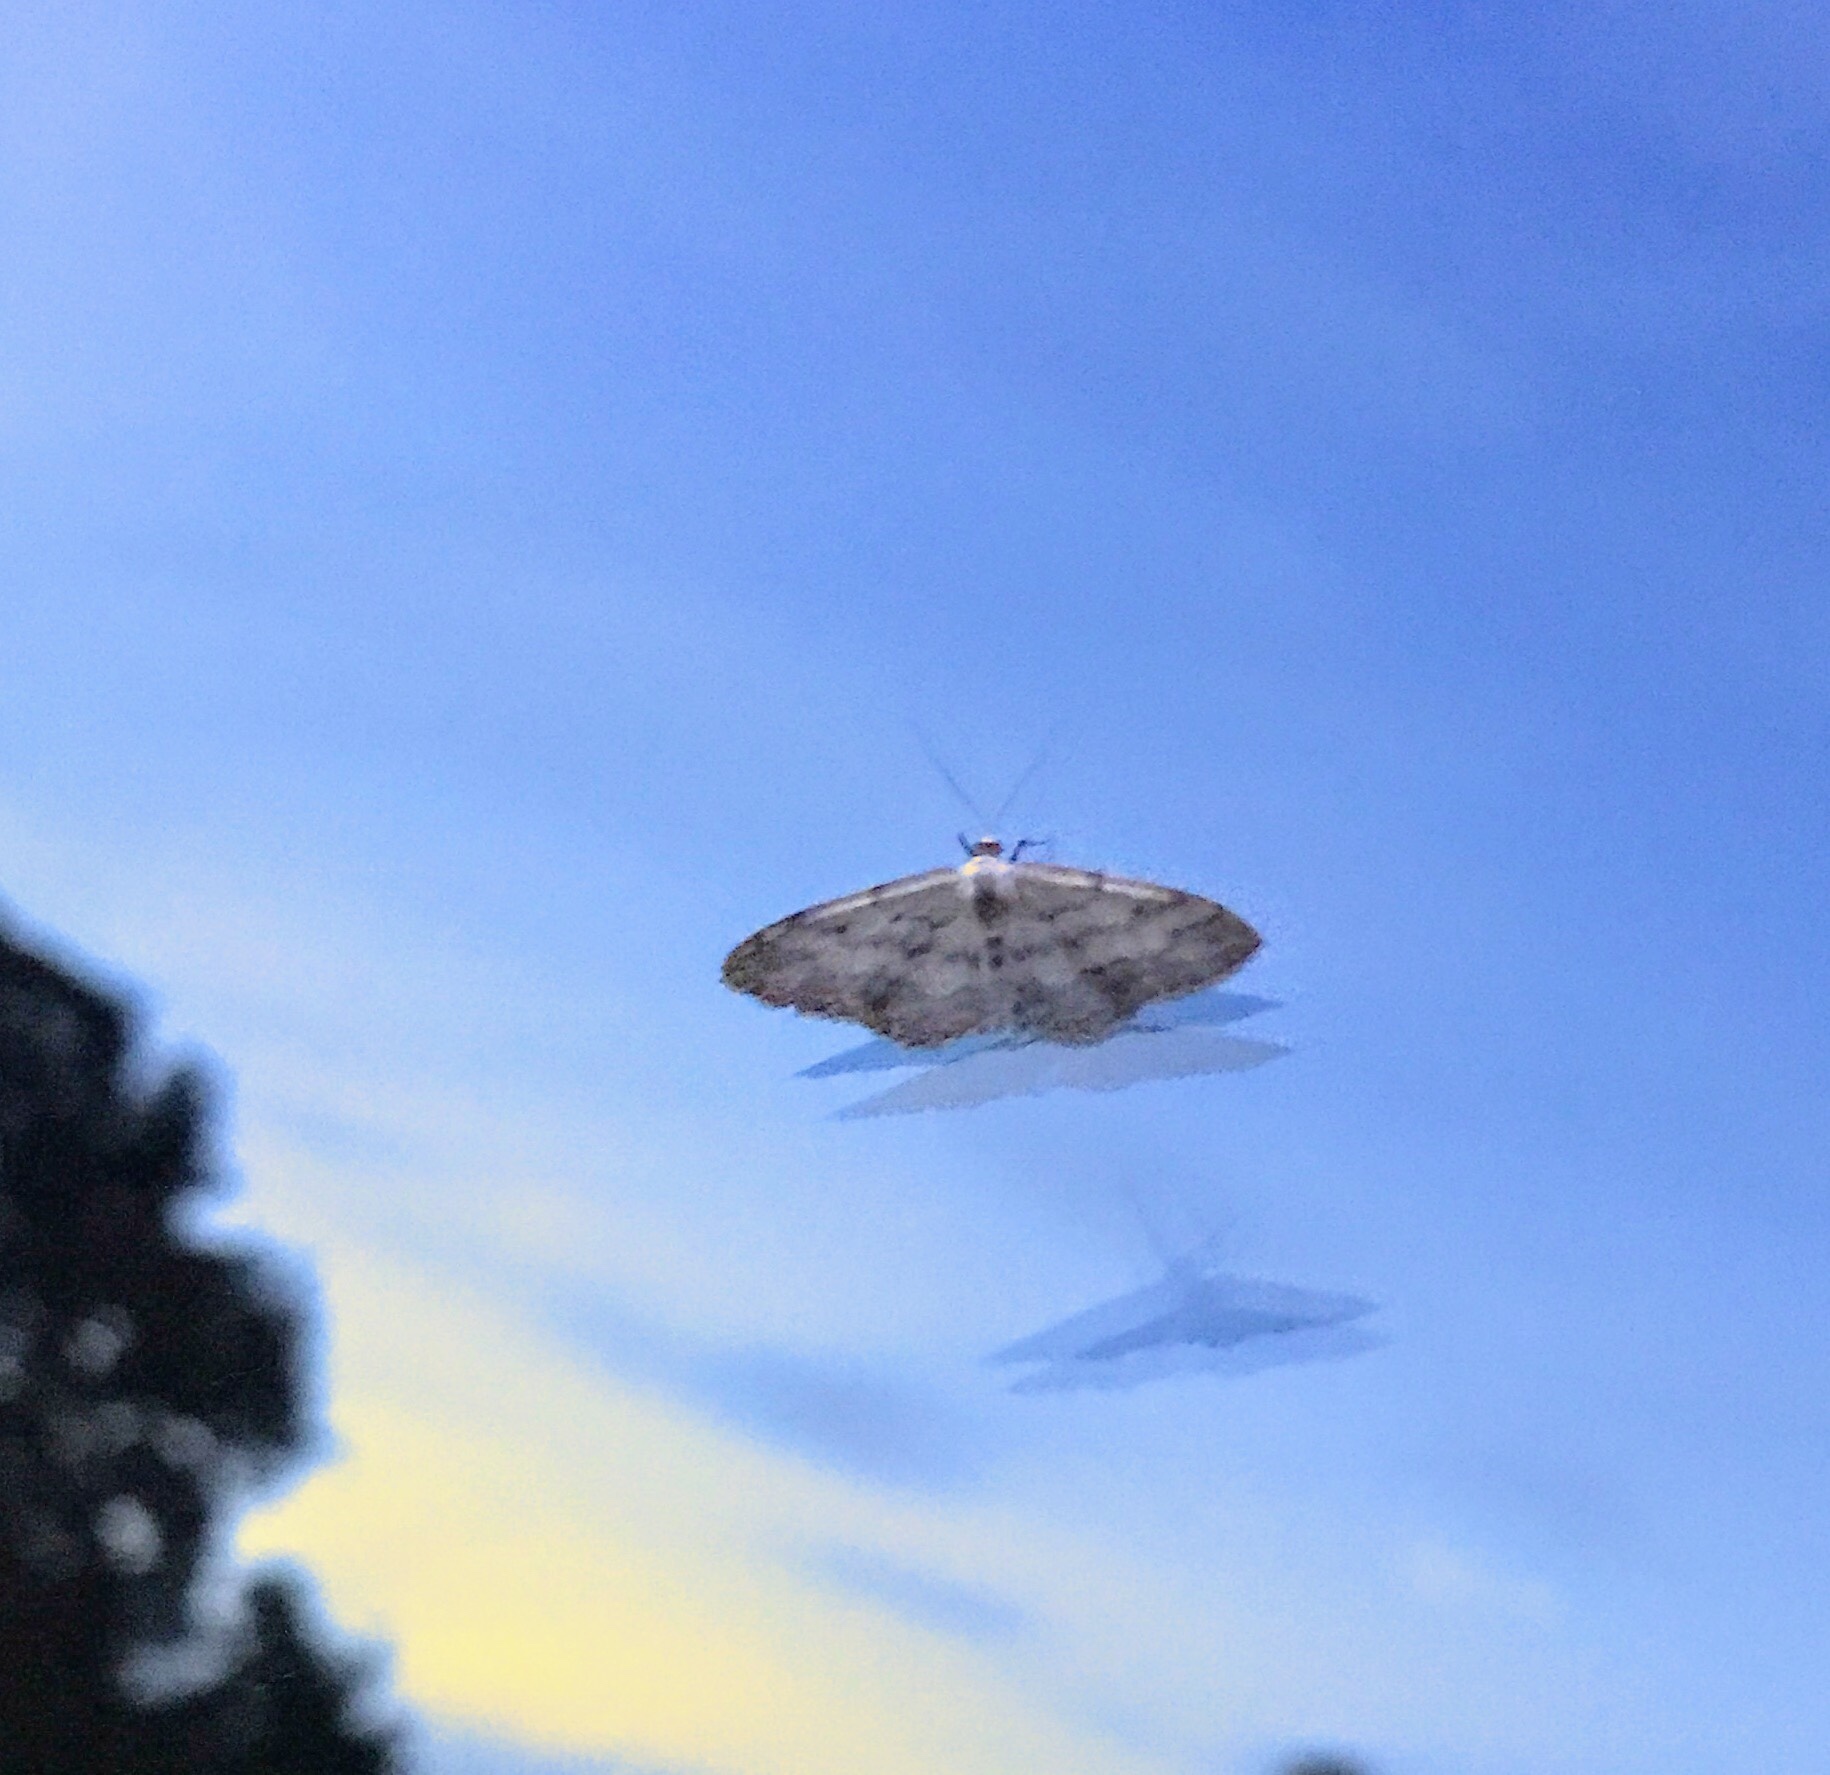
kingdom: Animalia
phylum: Arthropoda
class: Insecta
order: Lepidoptera
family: Geometridae
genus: Idaea
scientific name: Idaea seriata
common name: Small dusty wave
